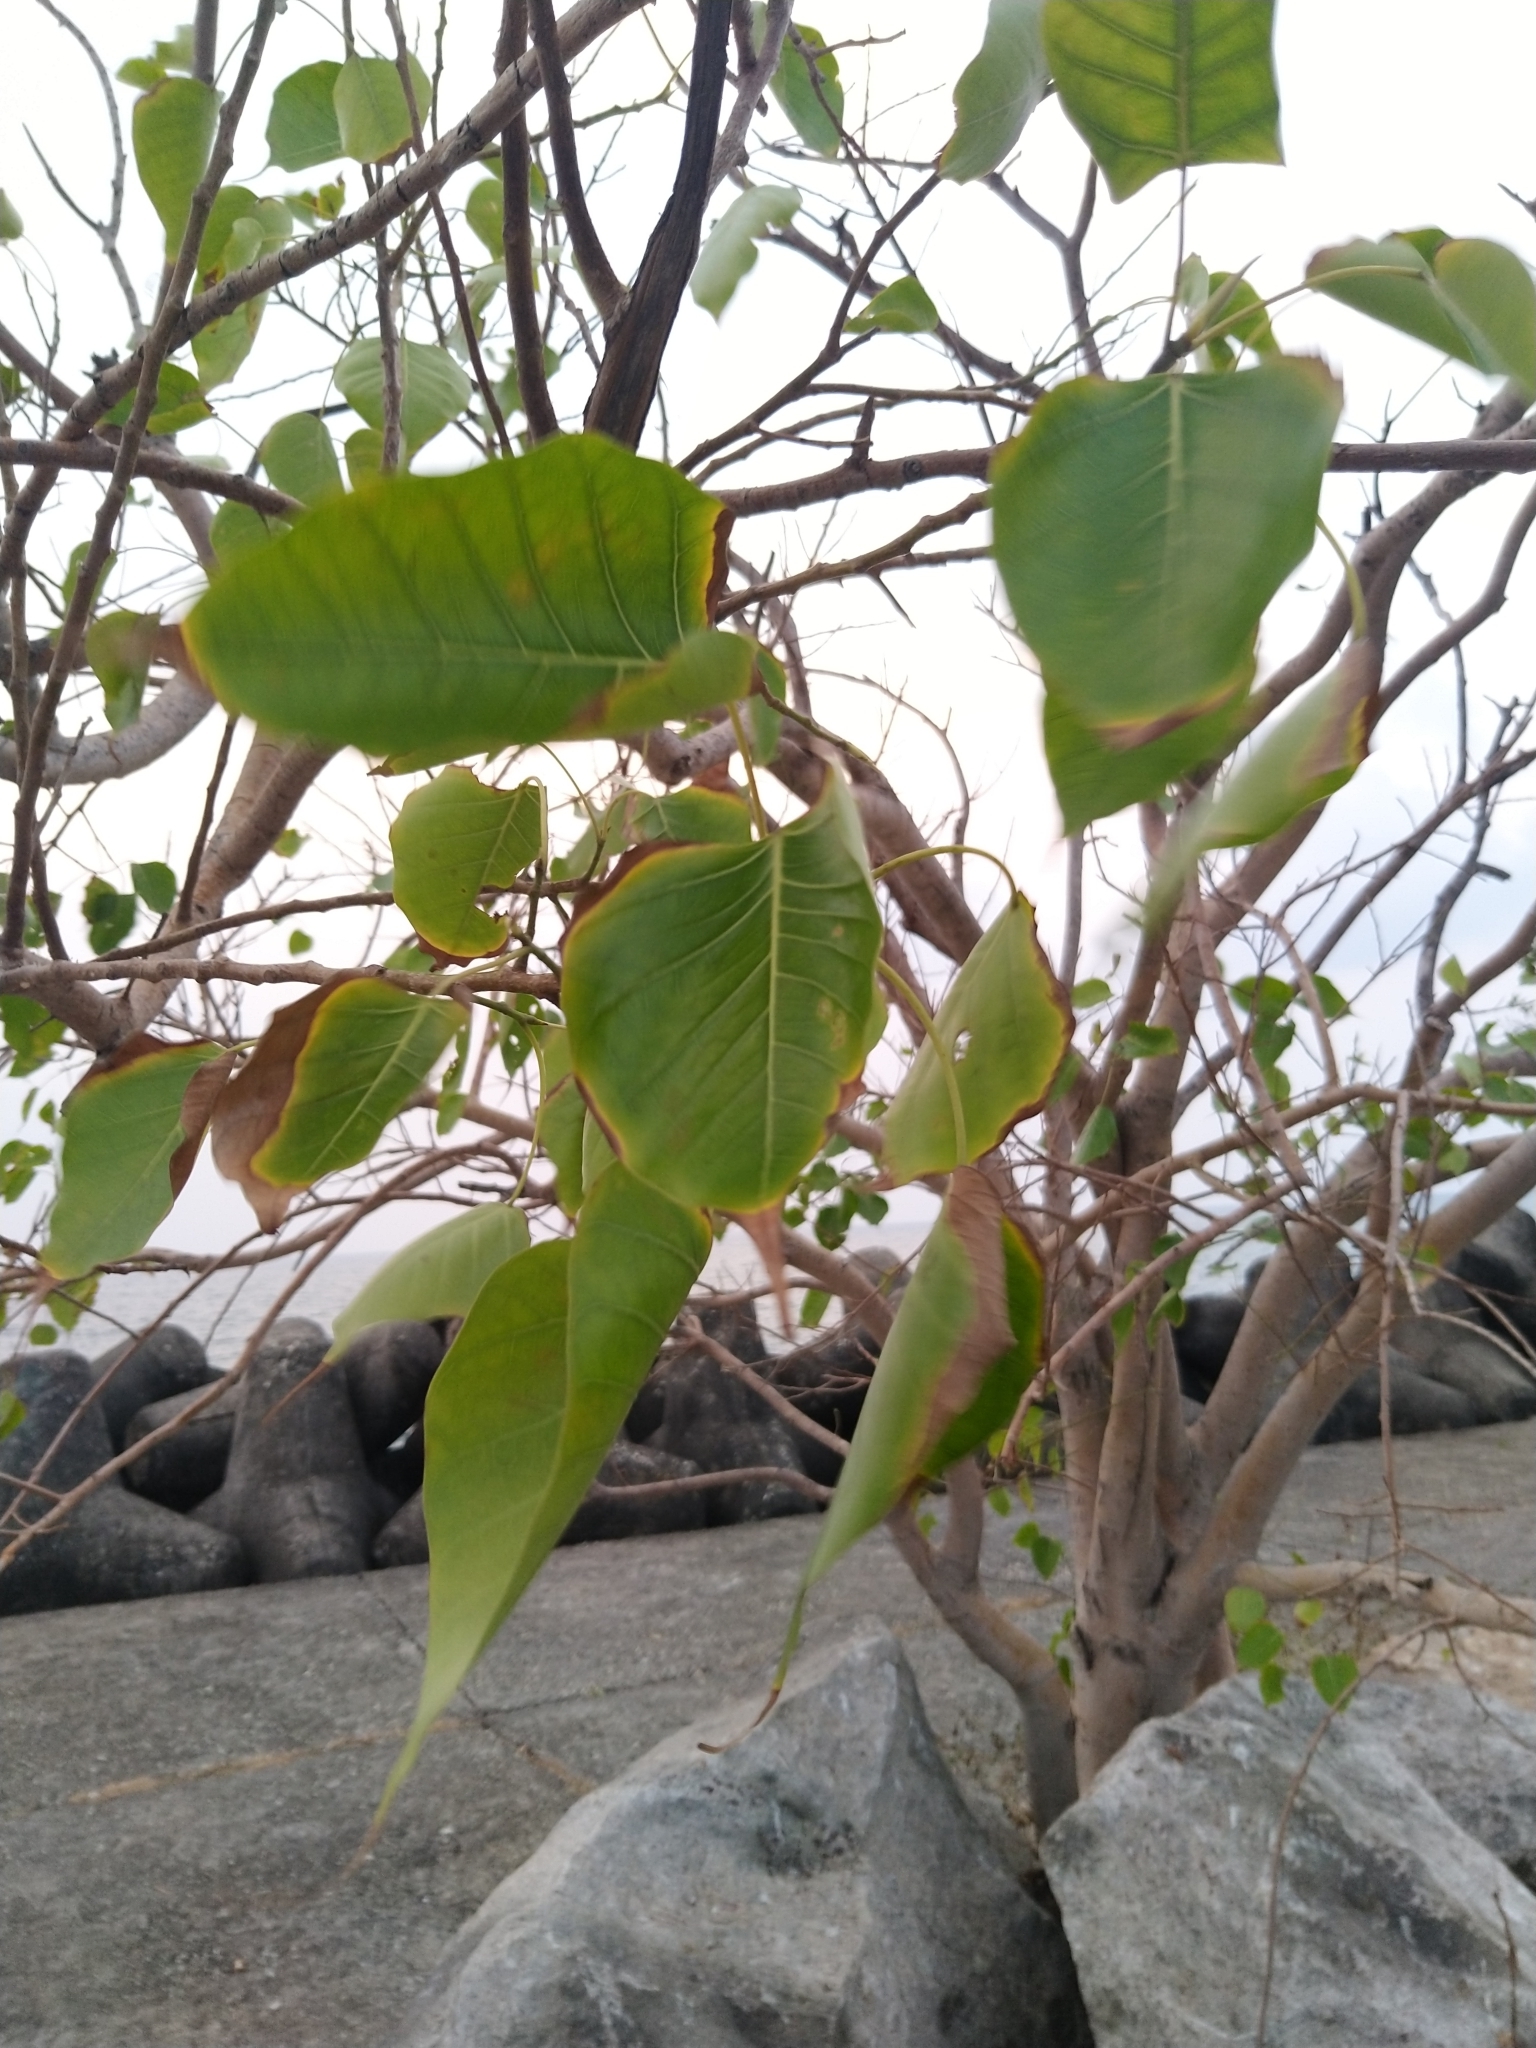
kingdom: Plantae
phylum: Tracheophyta
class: Magnoliopsida
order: Rosales
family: Moraceae
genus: Ficus
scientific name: Ficus religiosa
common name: Bodhi tree
